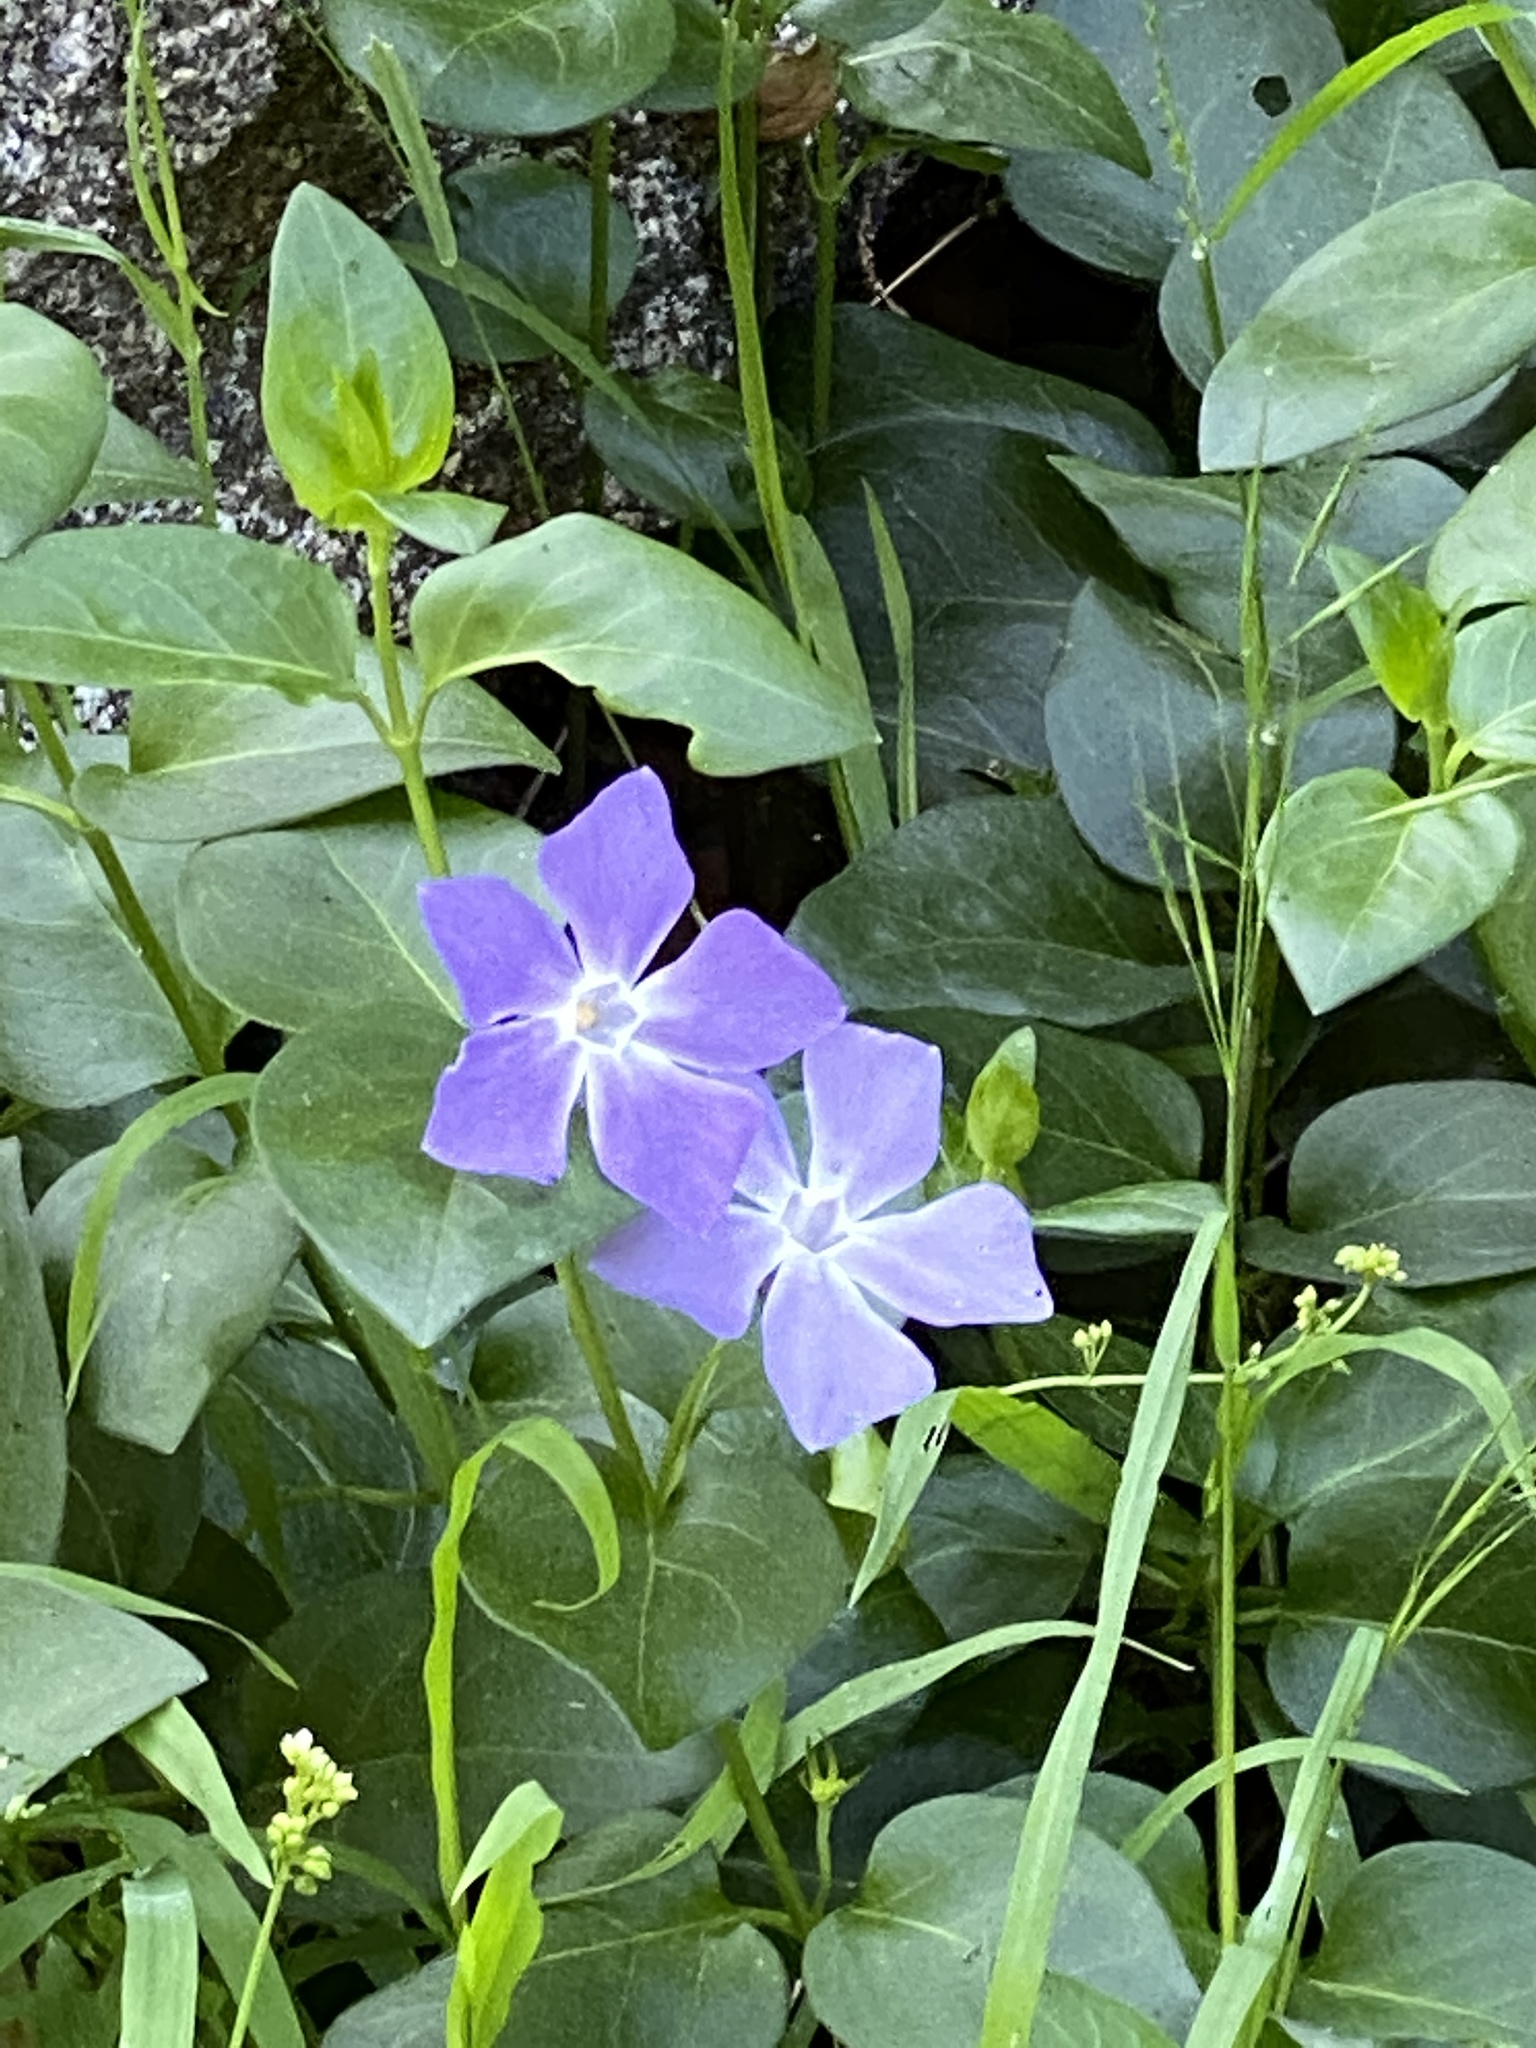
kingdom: Plantae
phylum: Tracheophyta
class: Magnoliopsida
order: Gentianales
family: Apocynaceae
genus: Vinca
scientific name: Vinca major
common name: Greater periwinkle
